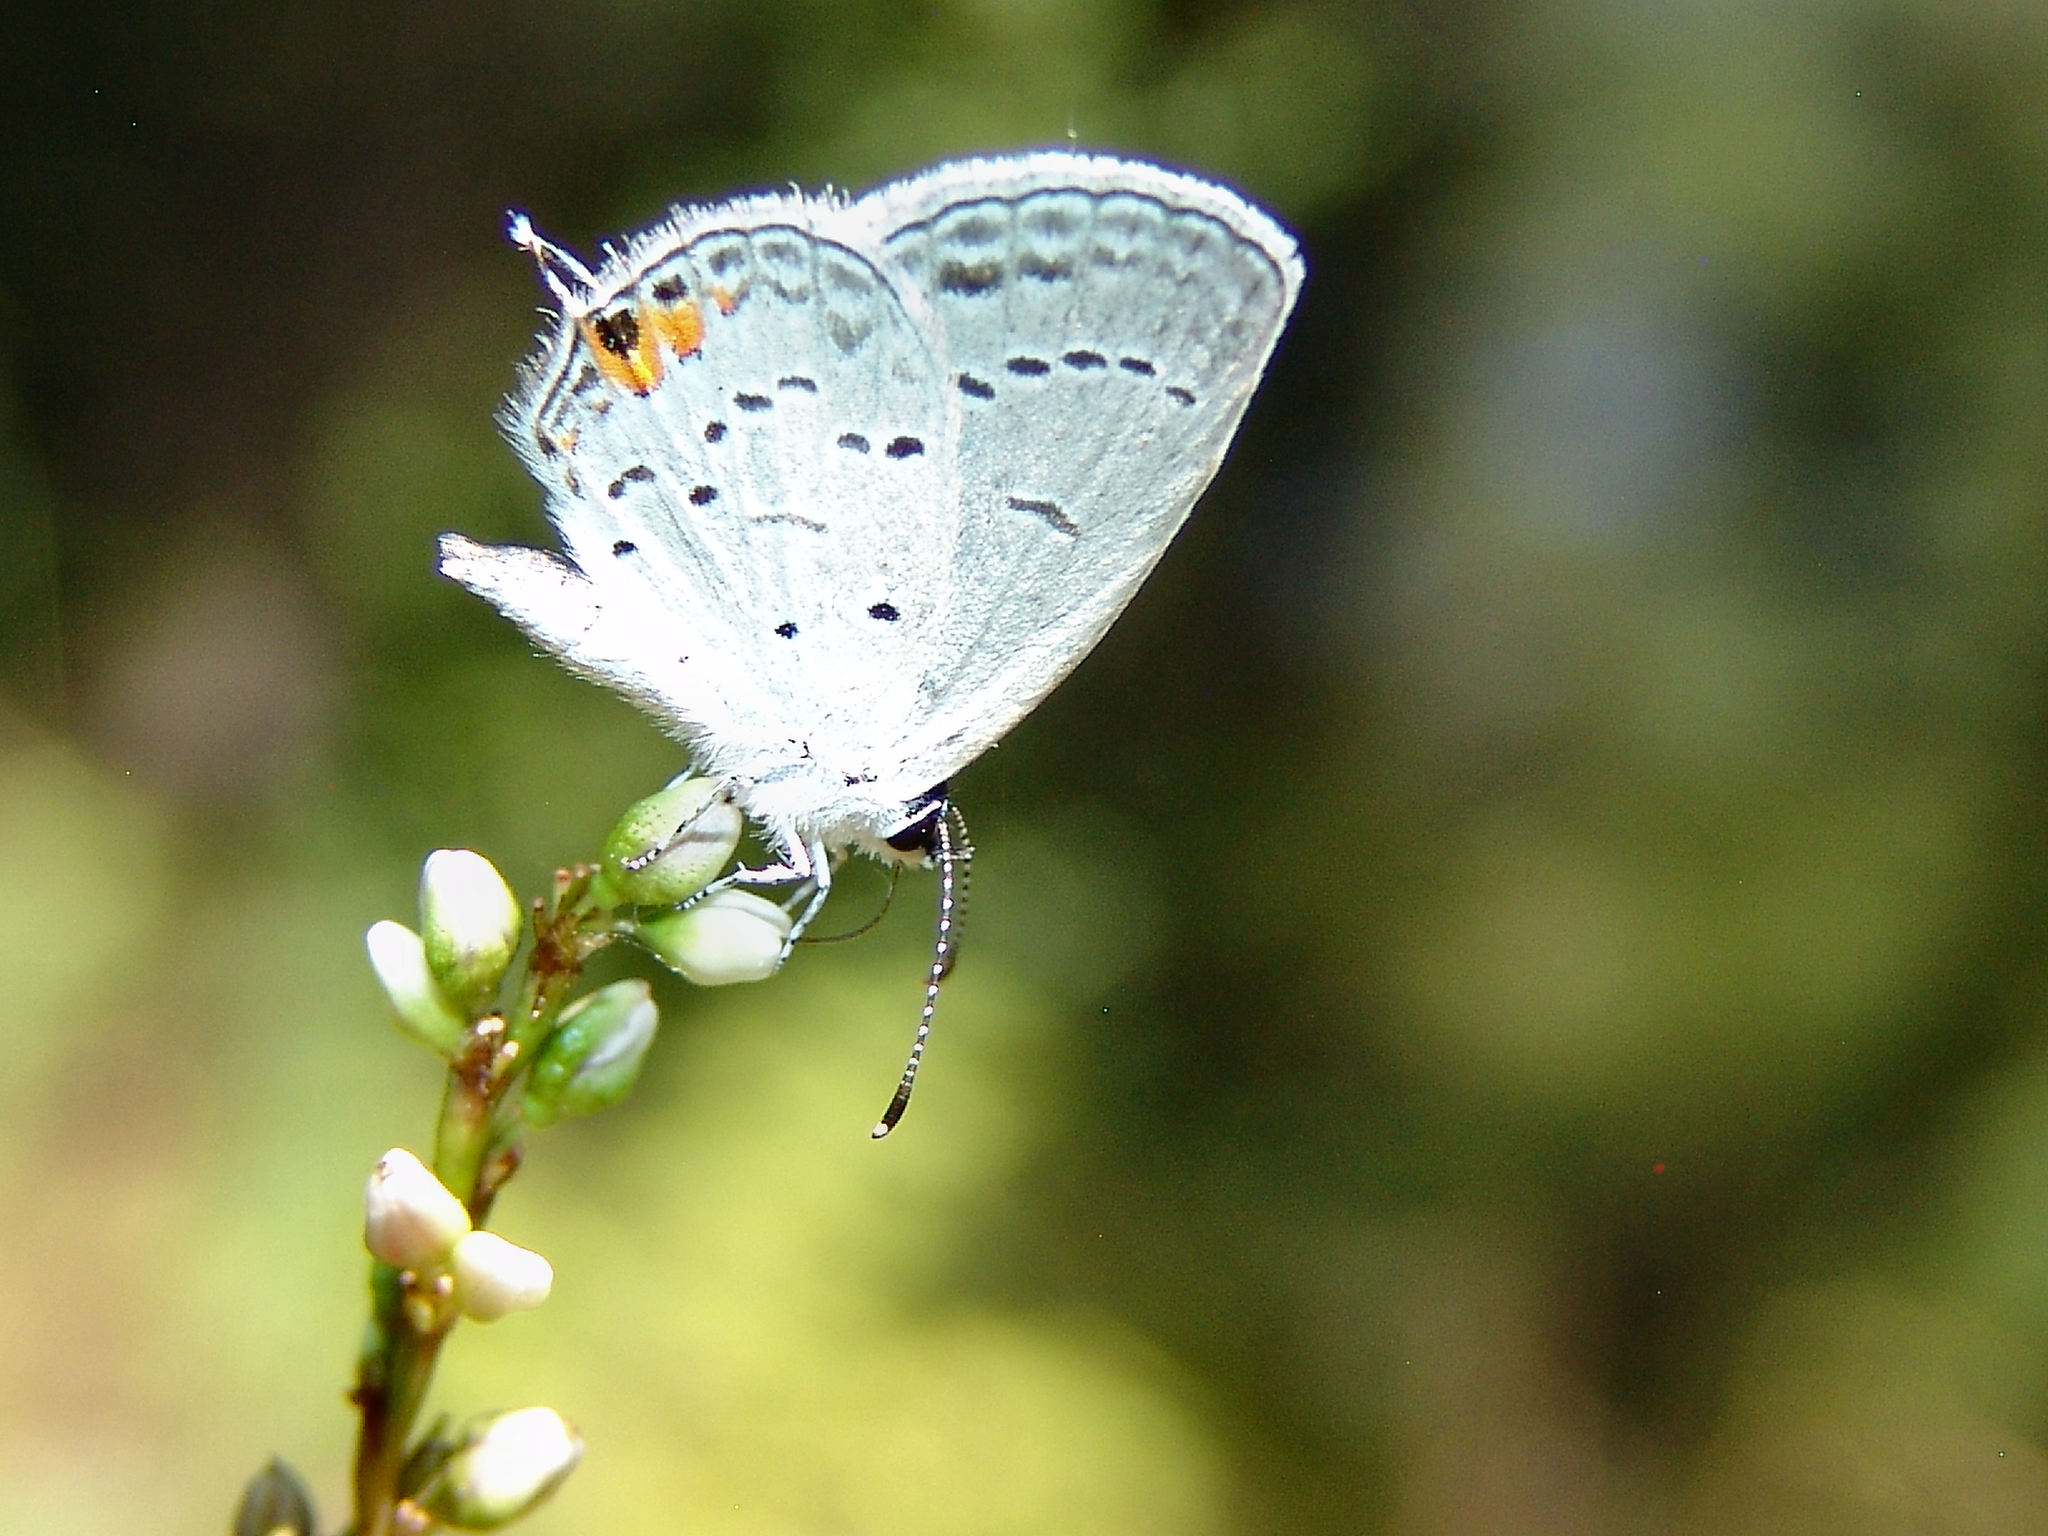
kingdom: Animalia
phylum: Arthropoda
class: Insecta
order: Lepidoptera
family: Lycaenidae
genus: Elkalyce
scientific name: Elkalyce comyntas
